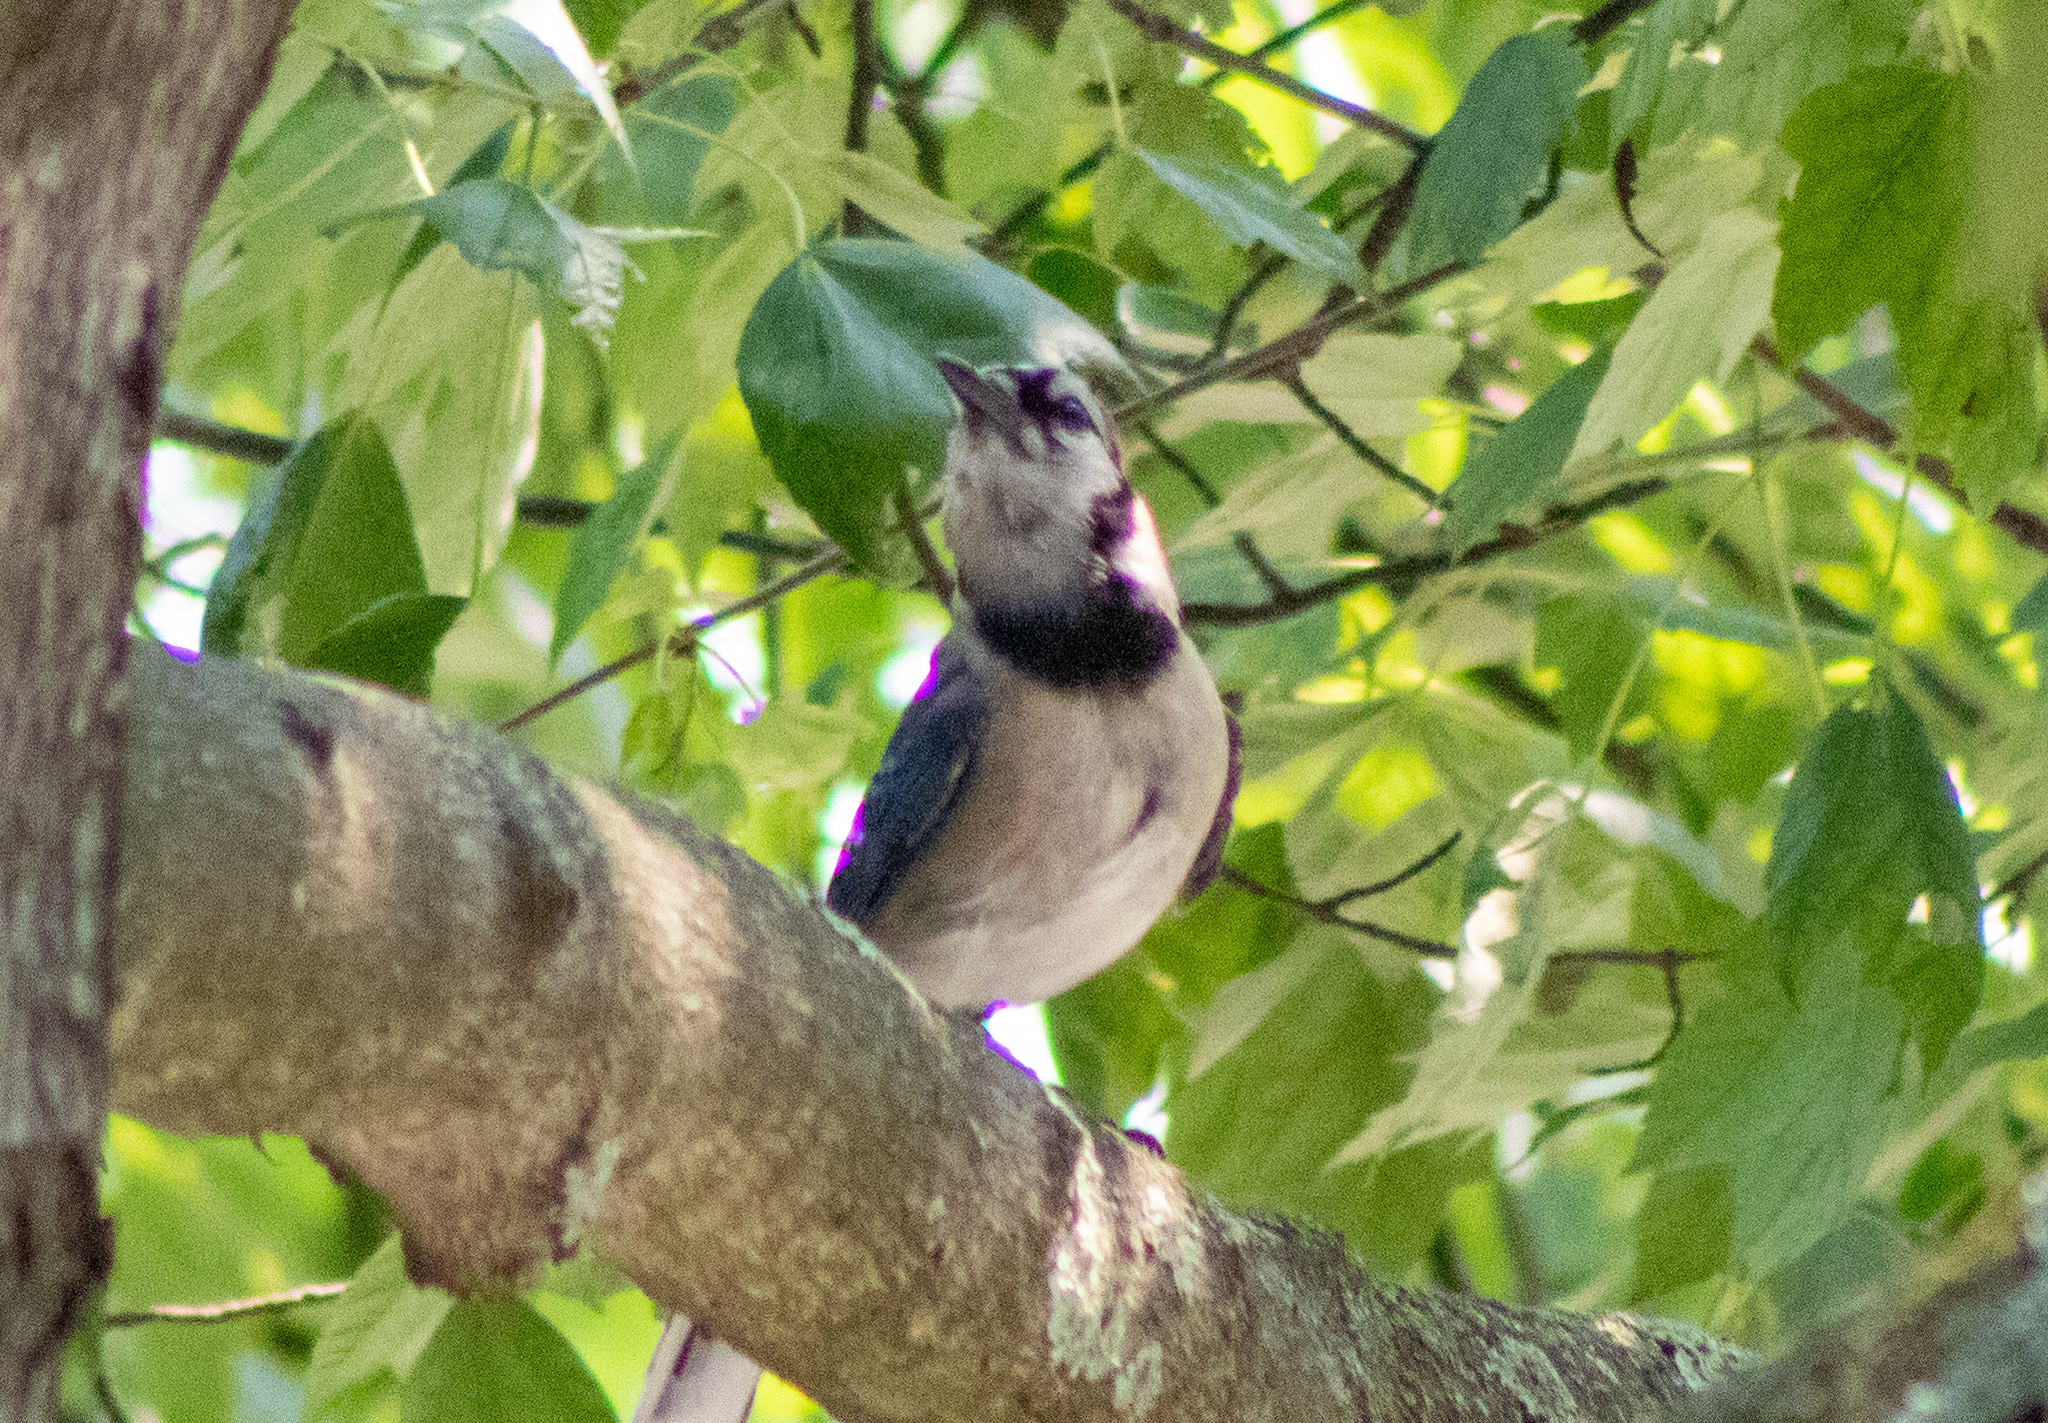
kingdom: Animalia
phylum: Chordata
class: Aves
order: Passeriformes
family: Corvidae
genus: Cyanocitta
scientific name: Cyanocitta cristata
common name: Blue jay
